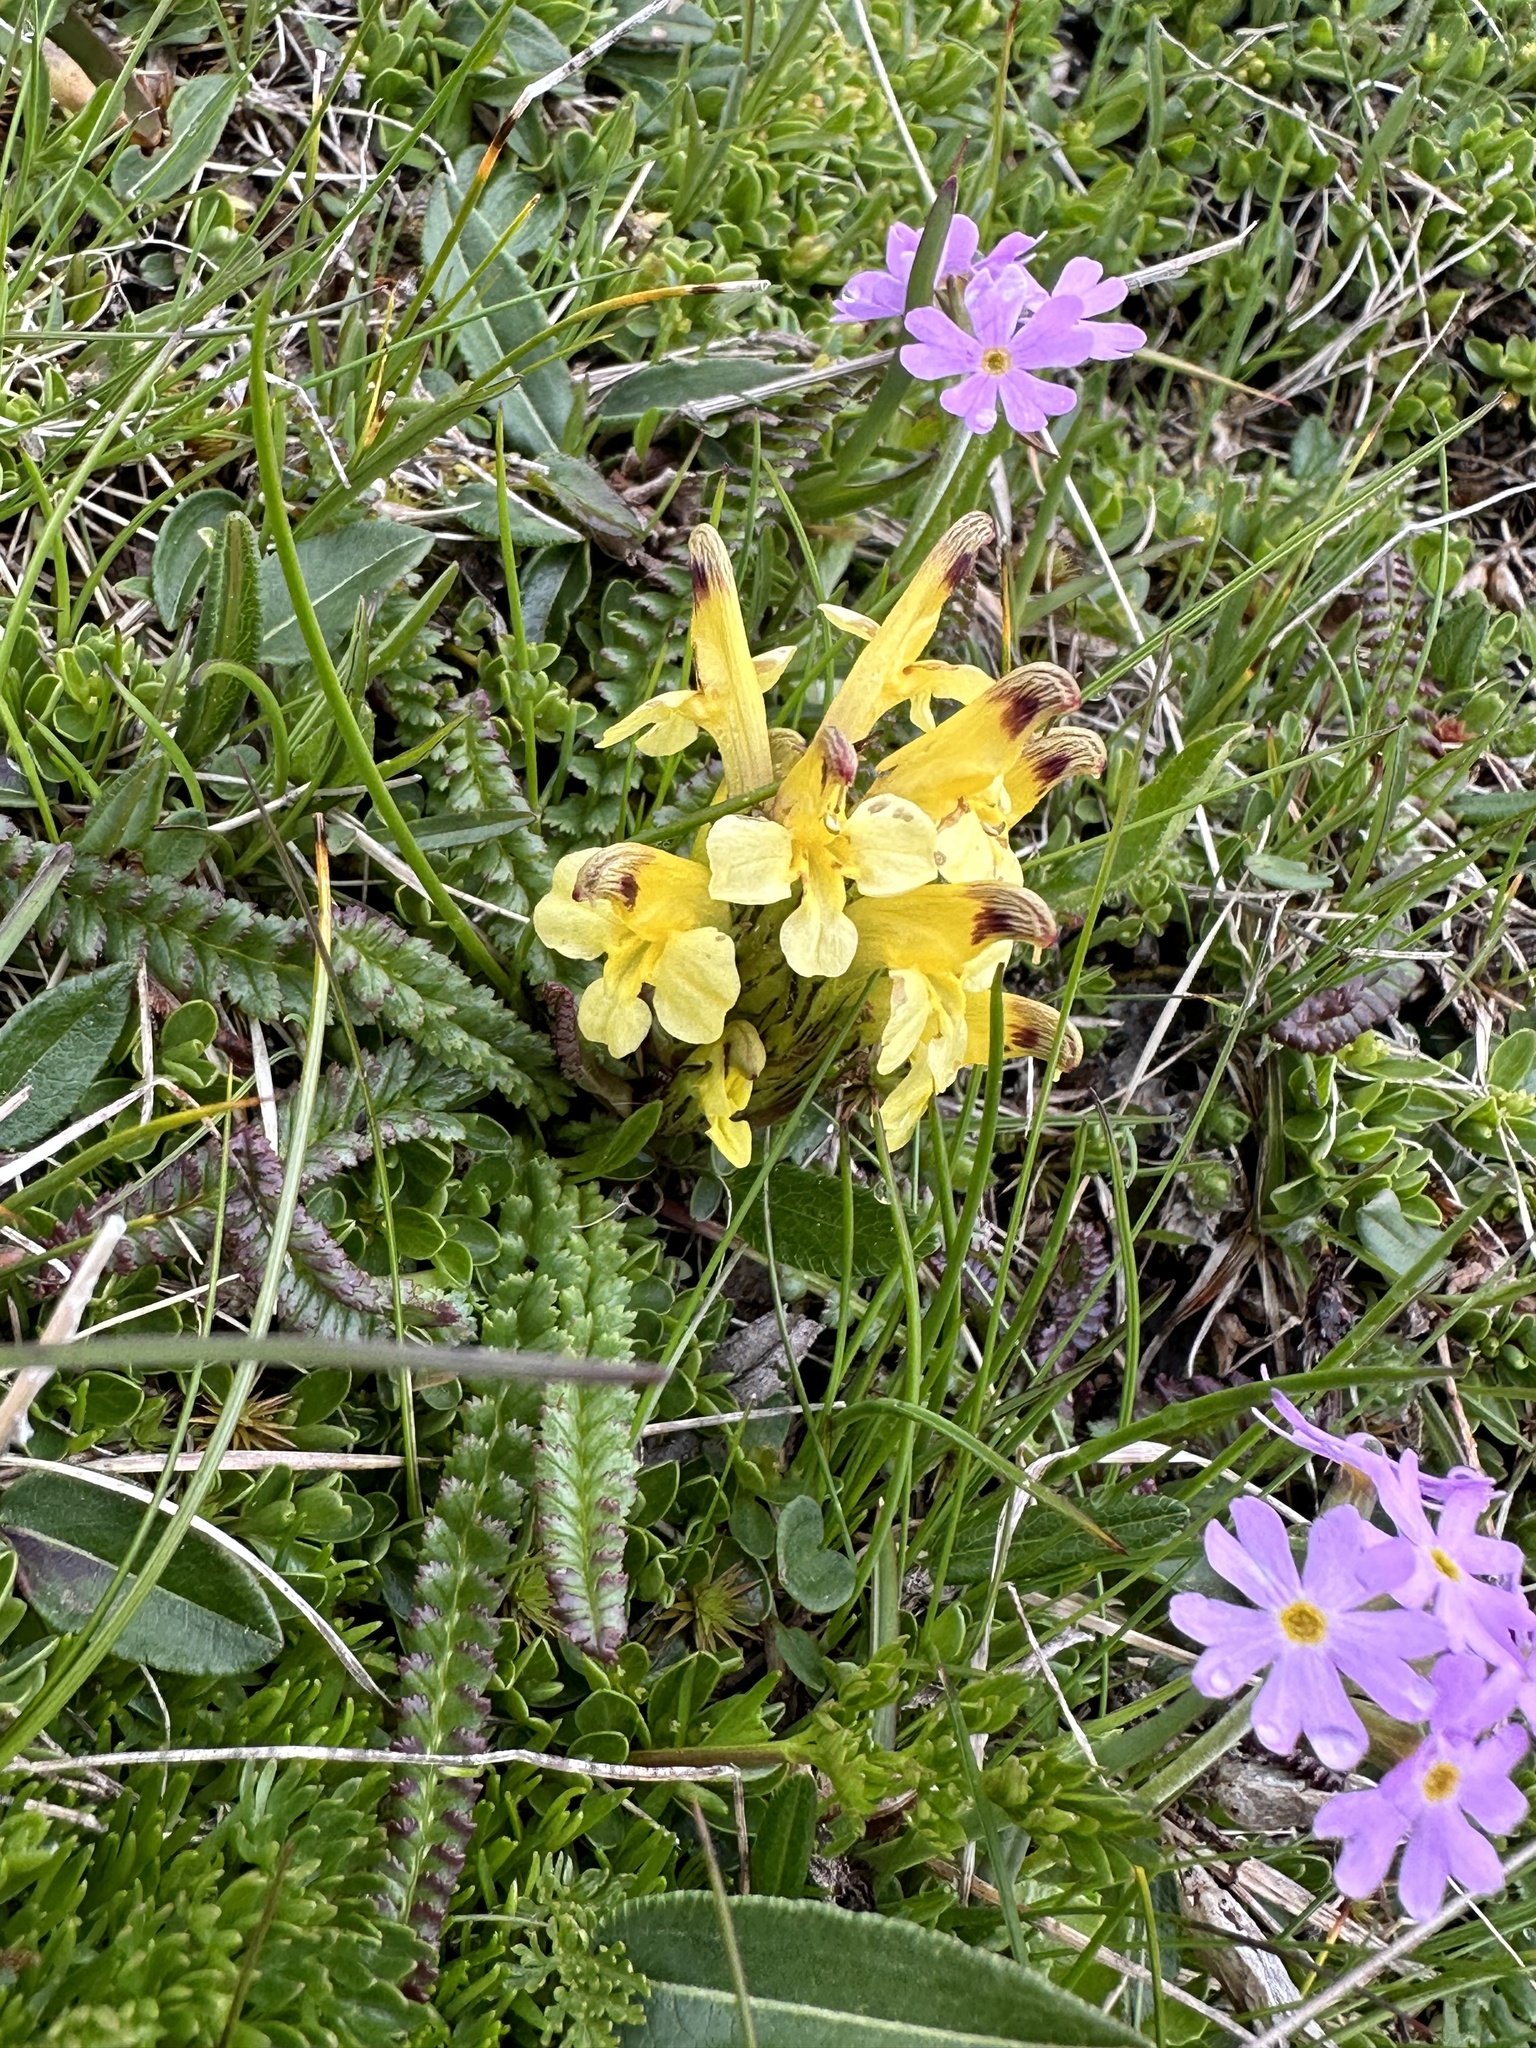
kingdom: Plantae
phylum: Tracheophyta
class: Magnoliopsida
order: Lamiales
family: Orobanchaceae
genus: Pedicularis
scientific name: Pedicularis oederi
